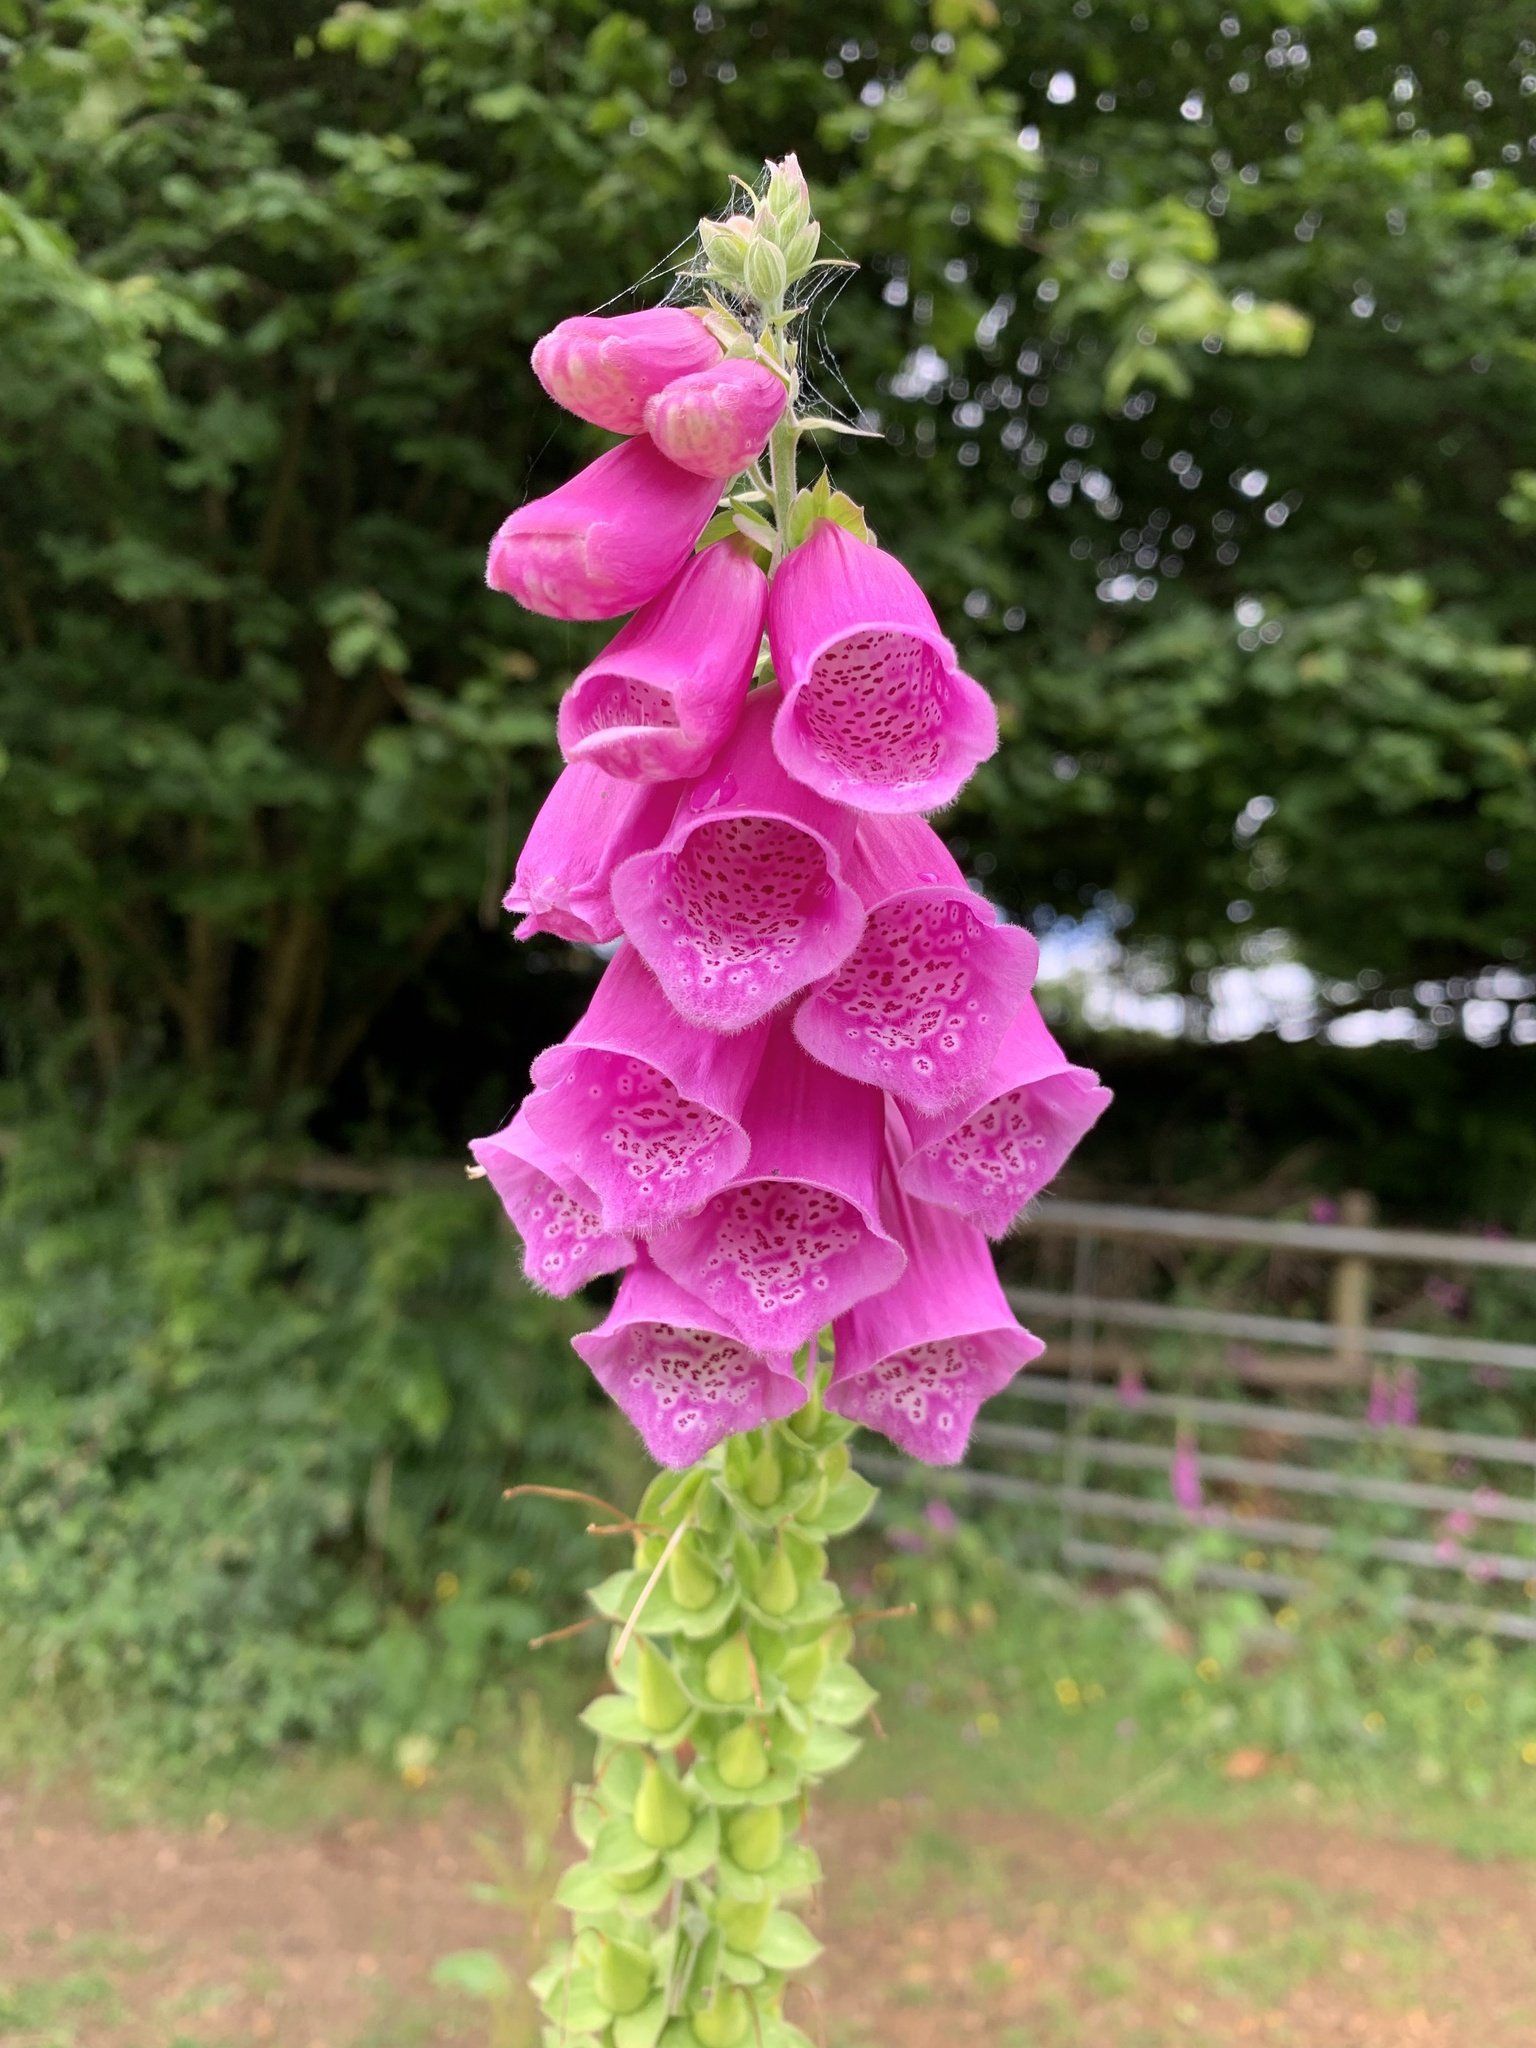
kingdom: Plantae
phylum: Tracheophyta
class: Magnoliopsida
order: Lamiales
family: Plantaginaceae
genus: Digitalis
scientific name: Digitalis purpurea
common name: Foxglove
